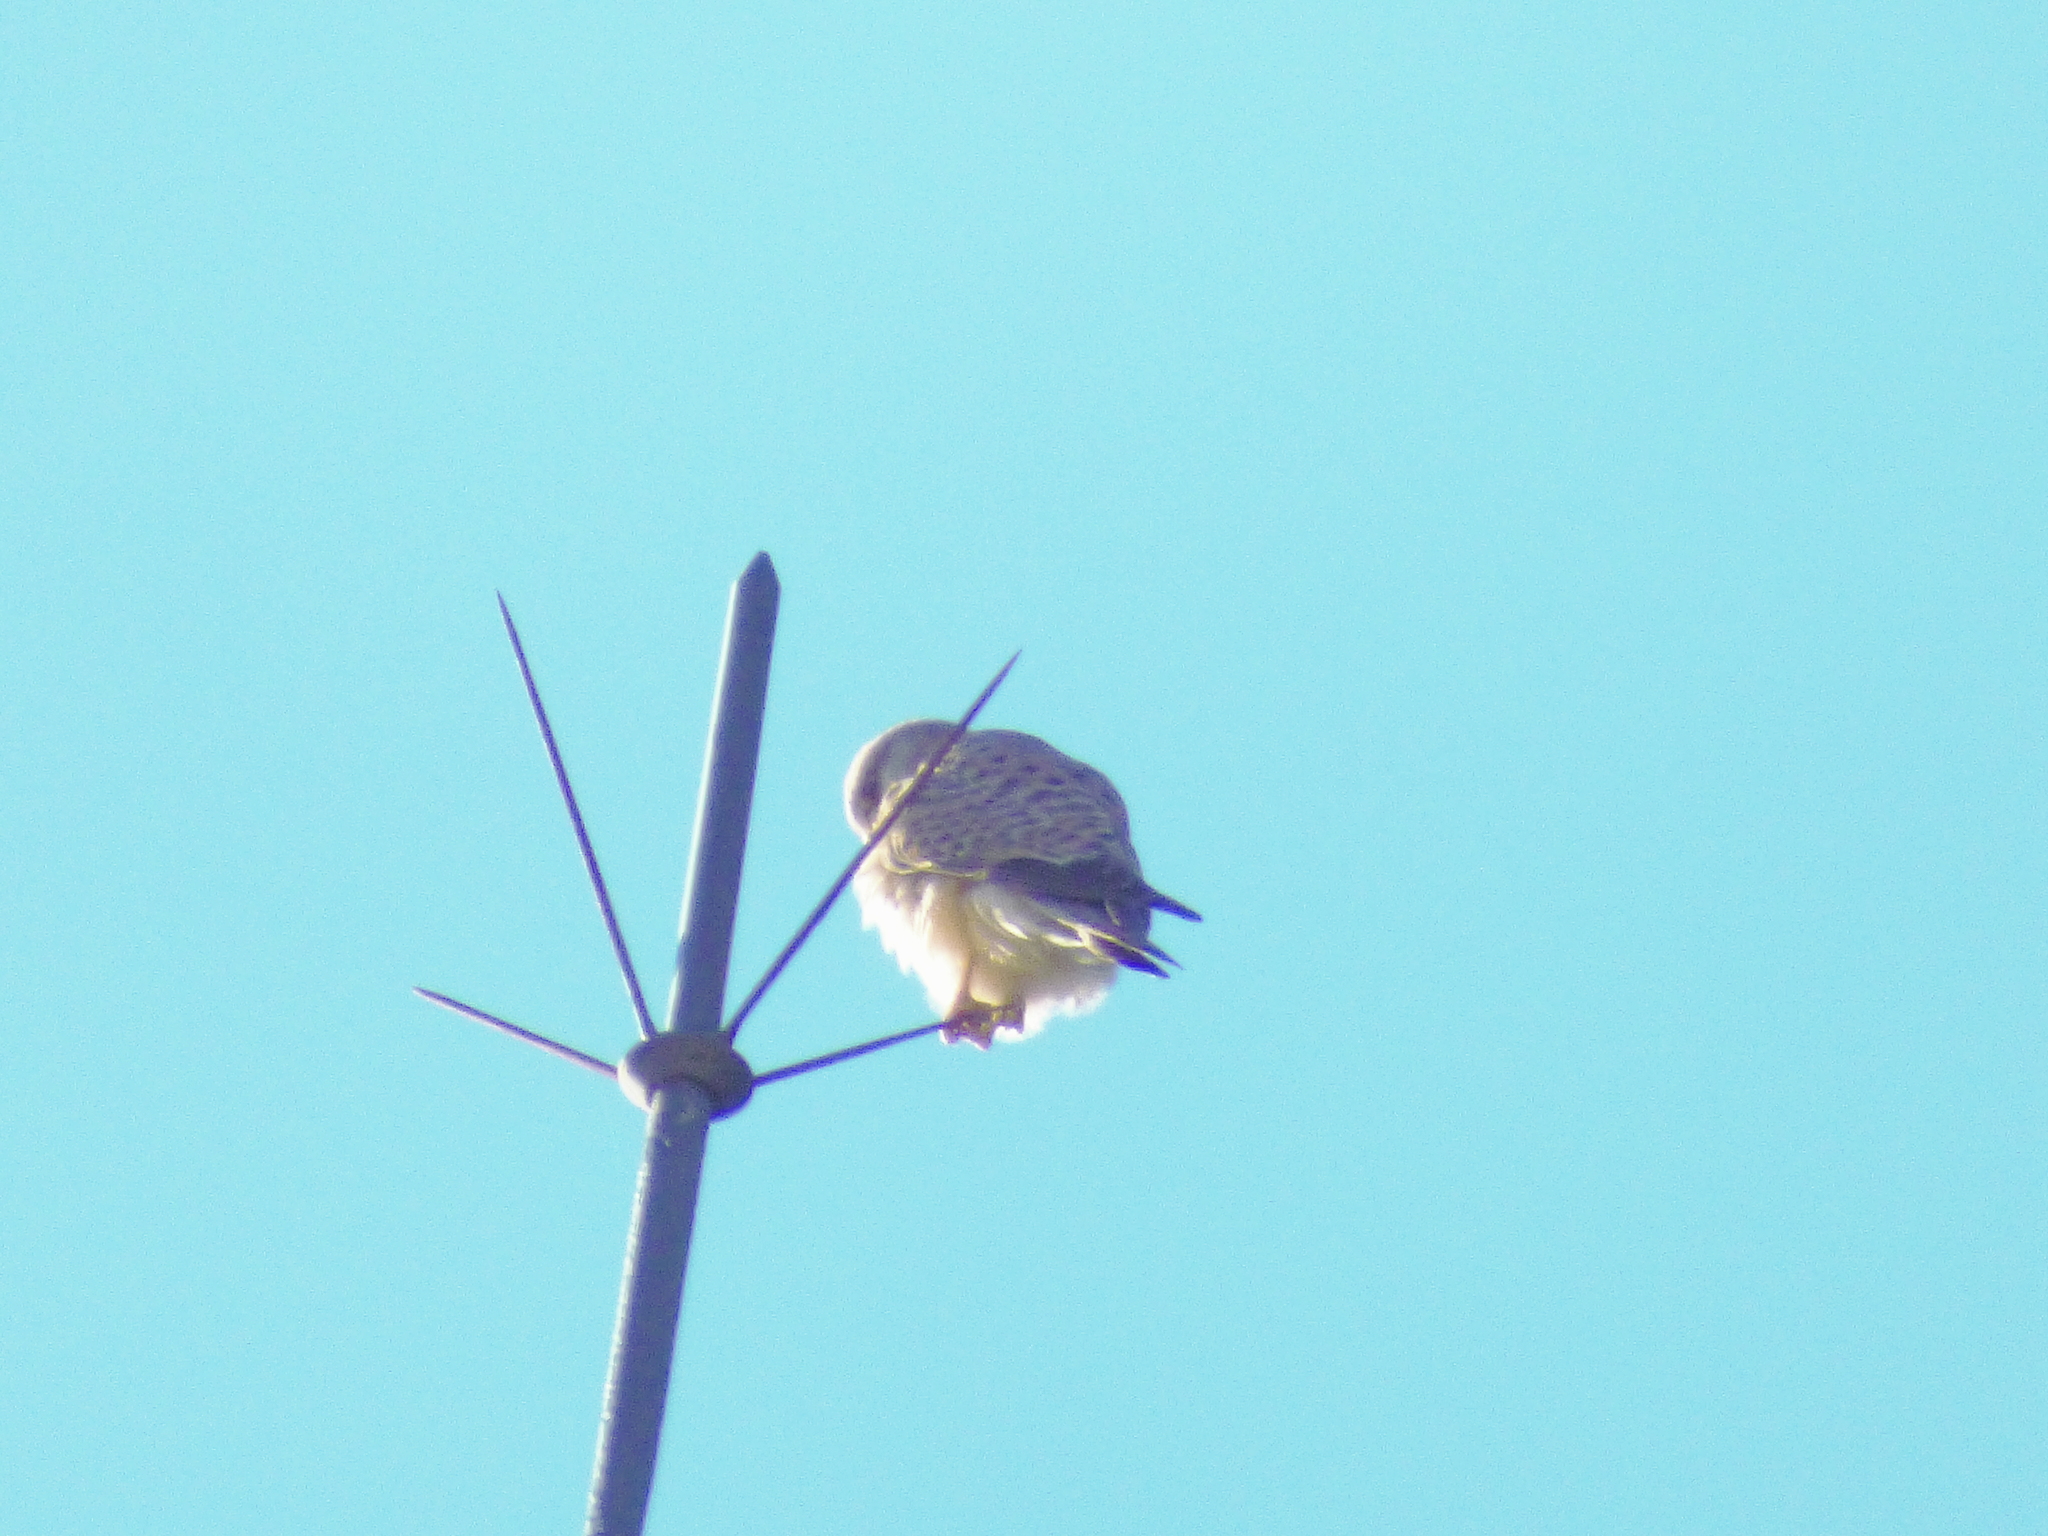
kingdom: Animalia
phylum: Chordata
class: Aves
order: Falconiformes
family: Falconidae
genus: Falco
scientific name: Falco tinnunculus
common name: Common kestrel
